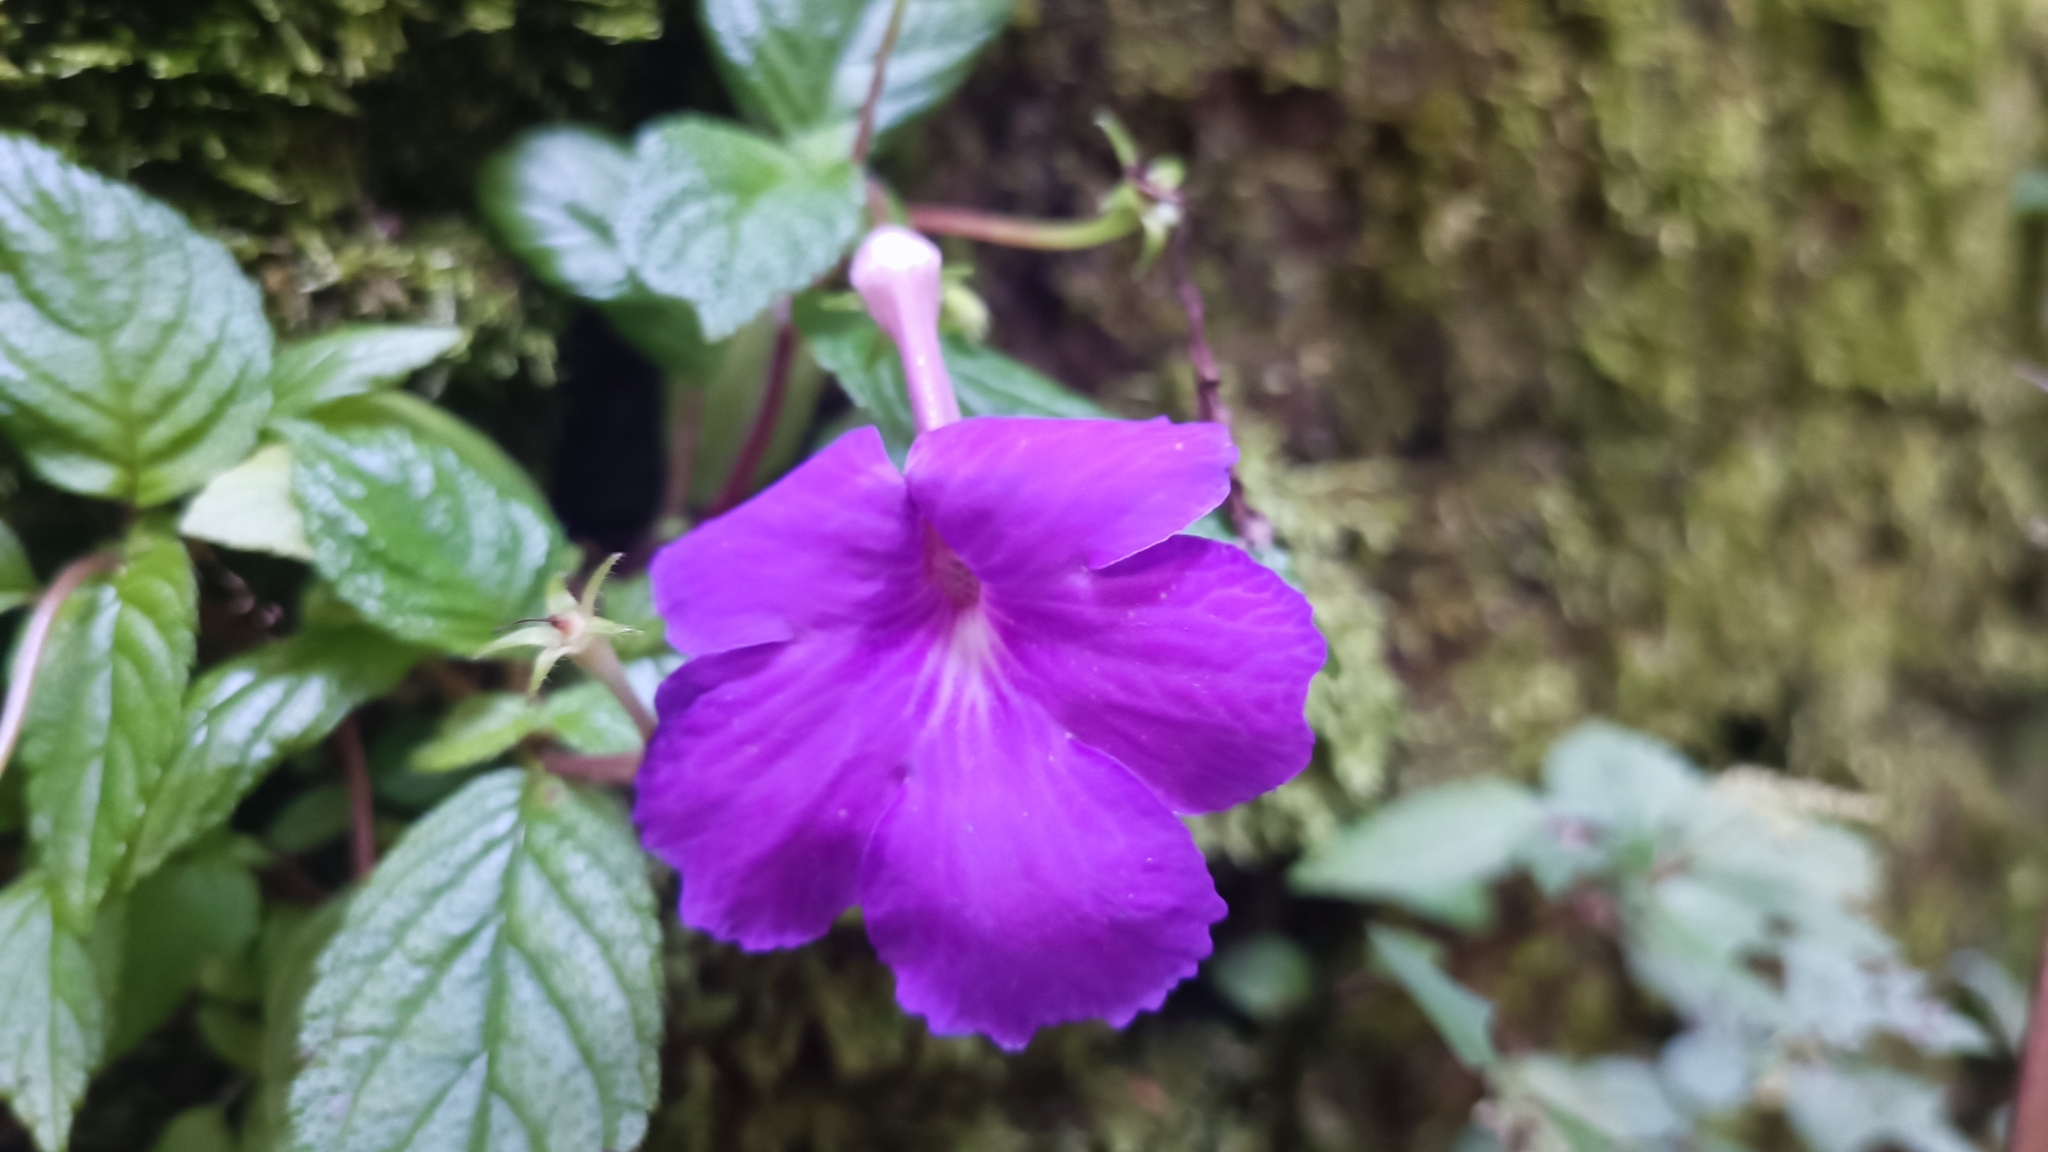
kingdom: Plantae
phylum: Tracheophyta
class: Magnoliopsida
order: Lamiales
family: Gesneriaceae
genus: Achimenes
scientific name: Achimenes grandiflora
